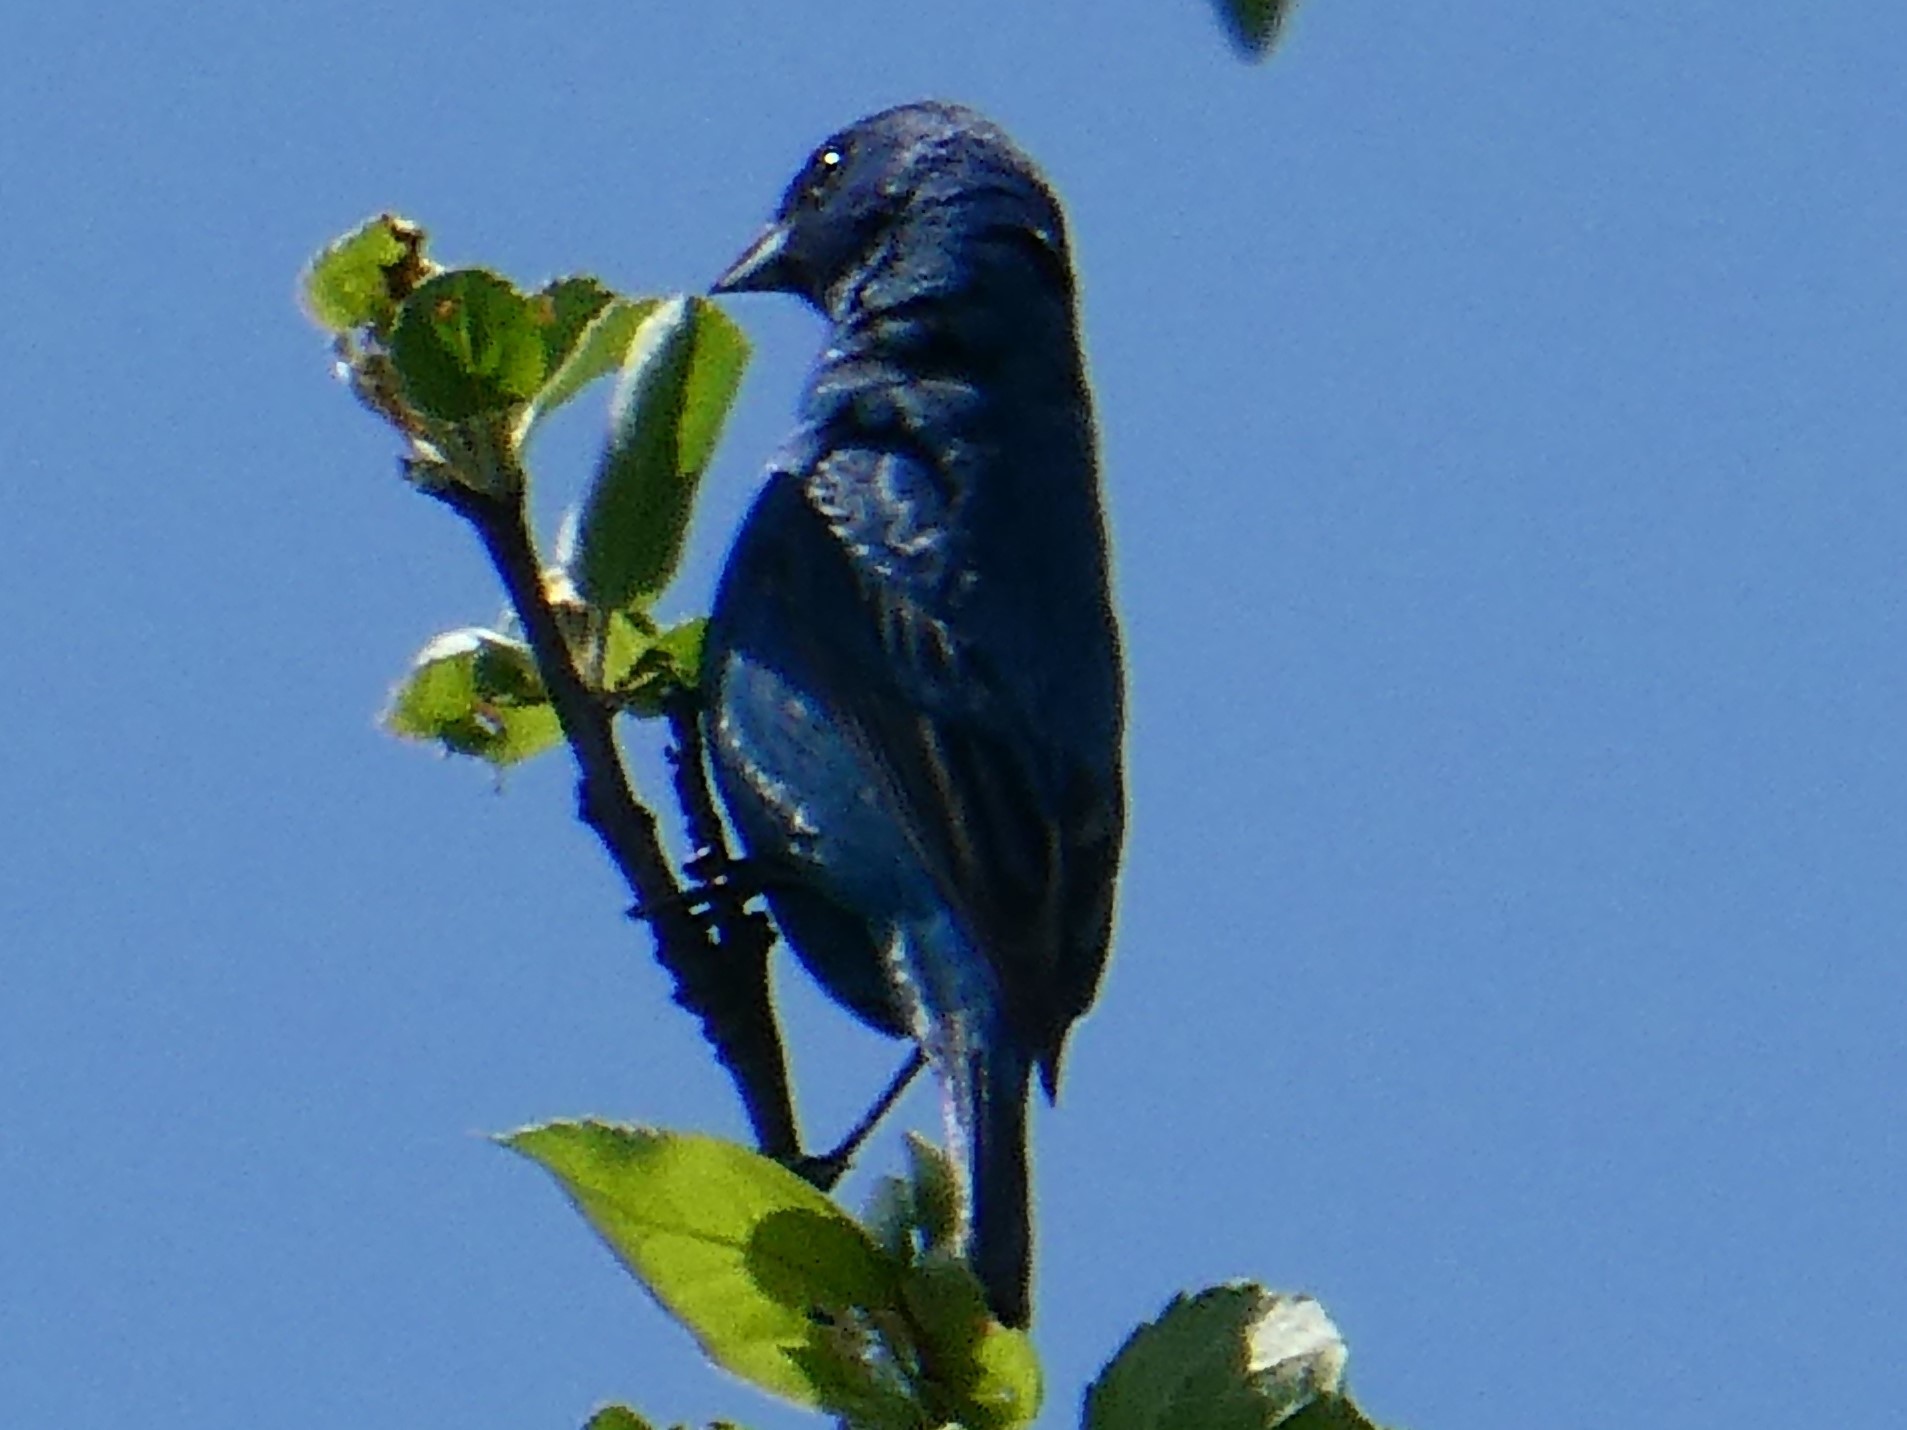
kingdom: Animalia
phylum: Chordata
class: Aves
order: Passeriformes
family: Cardinalidae
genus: Passerina
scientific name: Passerina cyanea
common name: Indigo bunting
